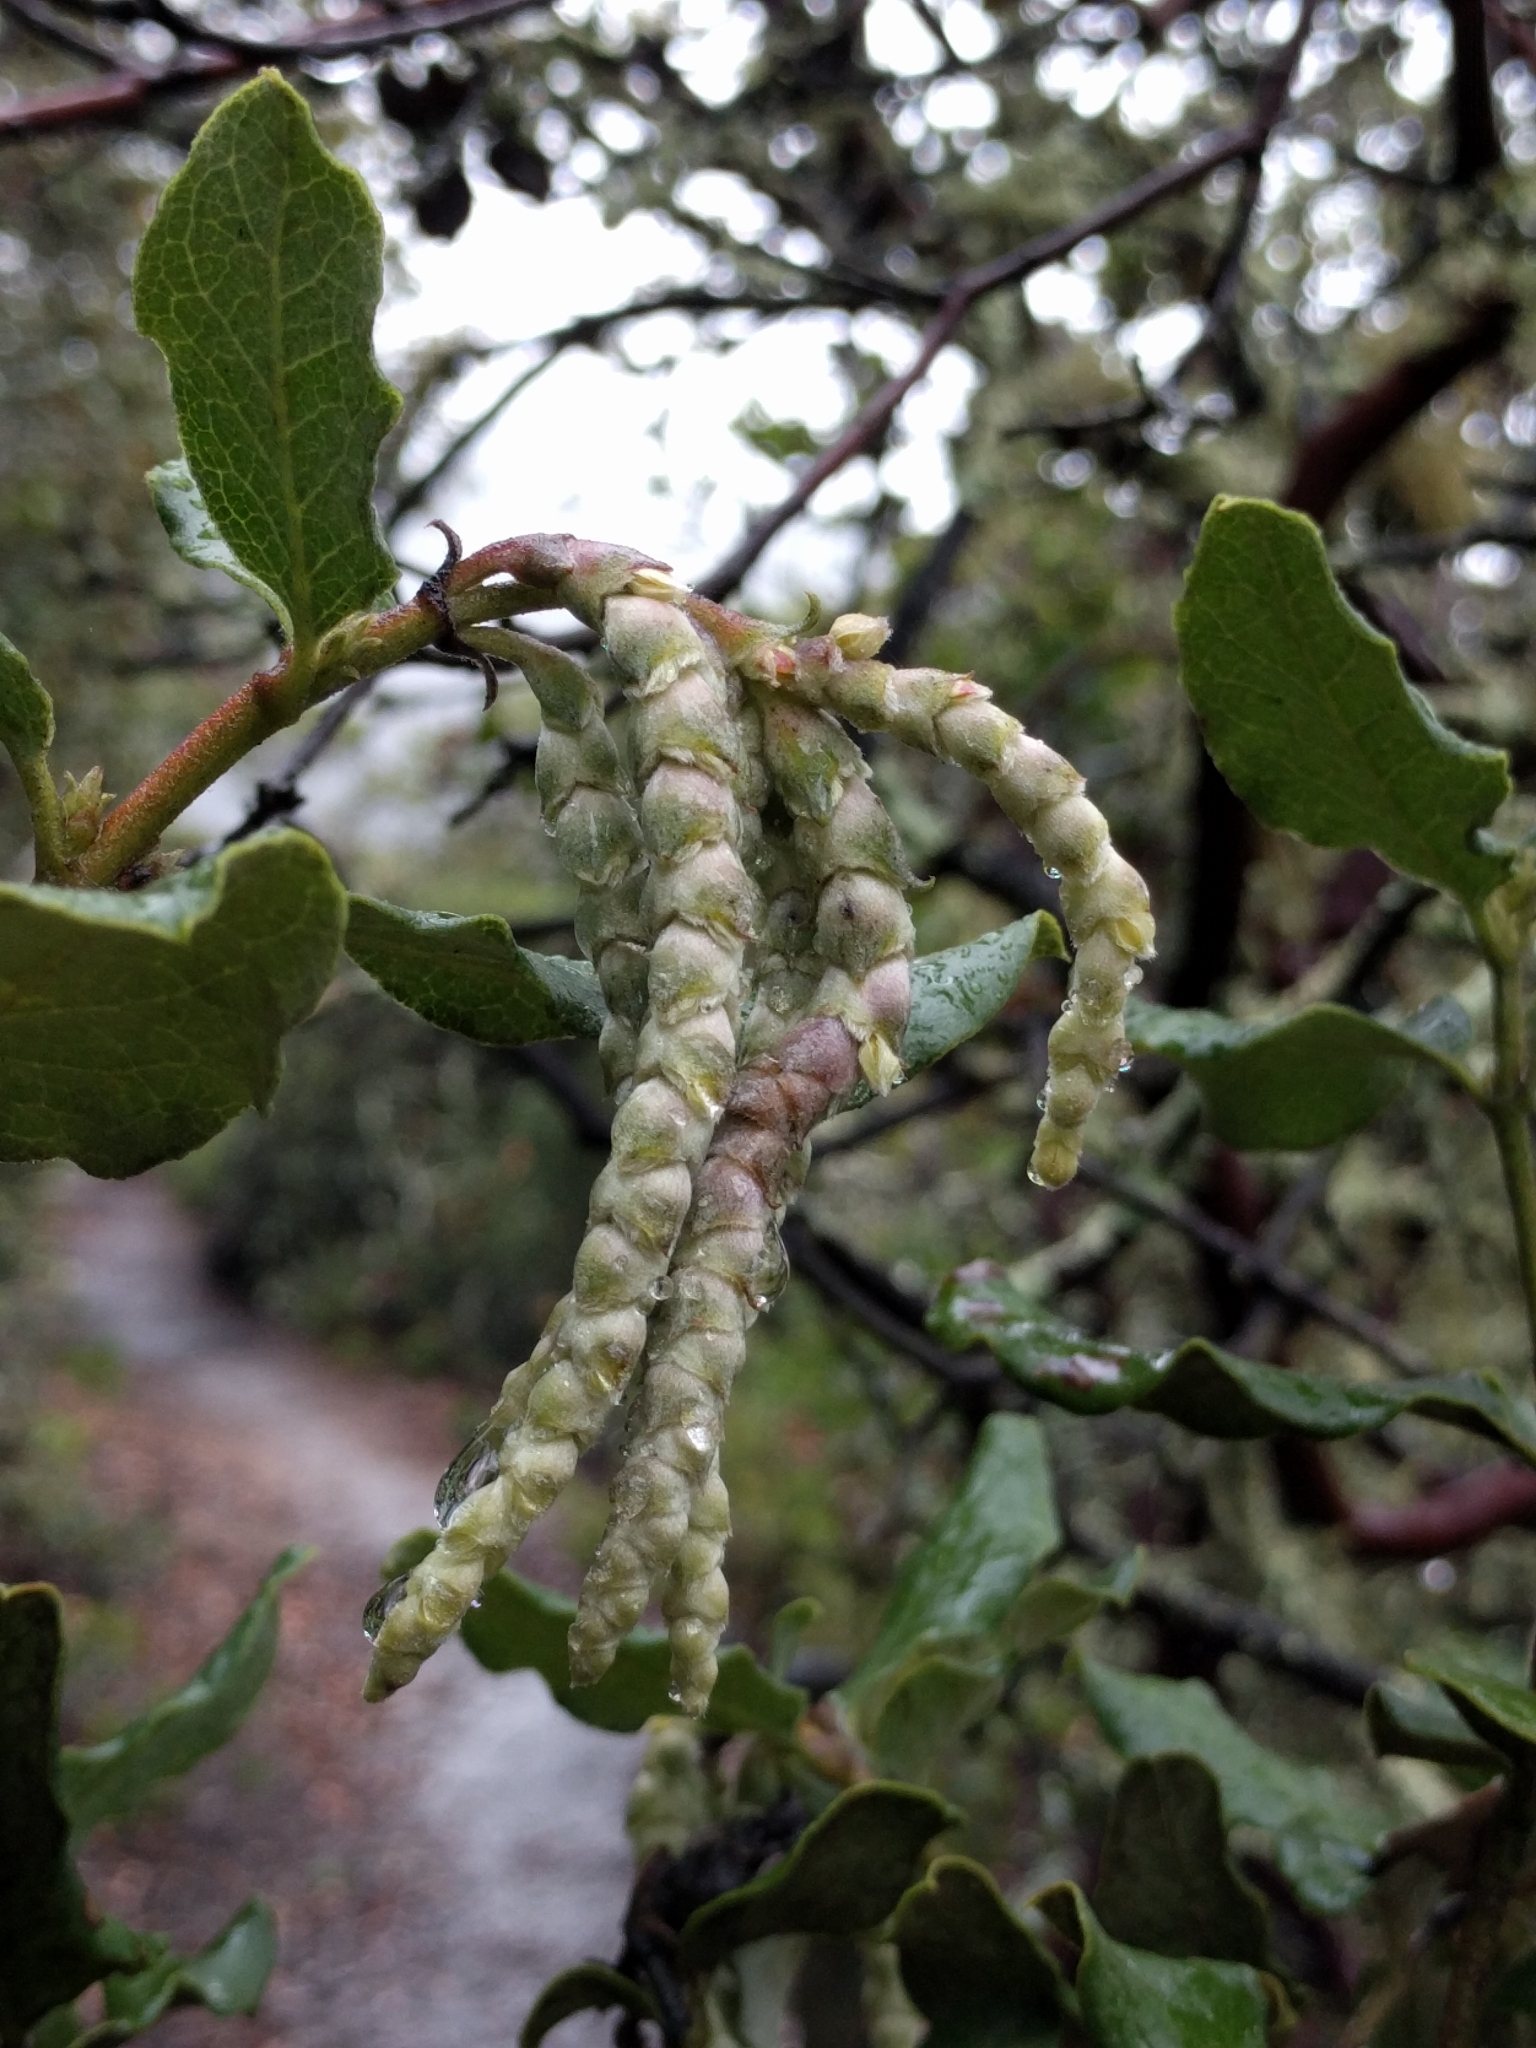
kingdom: Plantae
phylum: Tracheophyta
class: Magnoliopsida
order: Garryales
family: Garryaceae
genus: Garrya
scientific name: Garrya elliptica
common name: Silk-tassel
